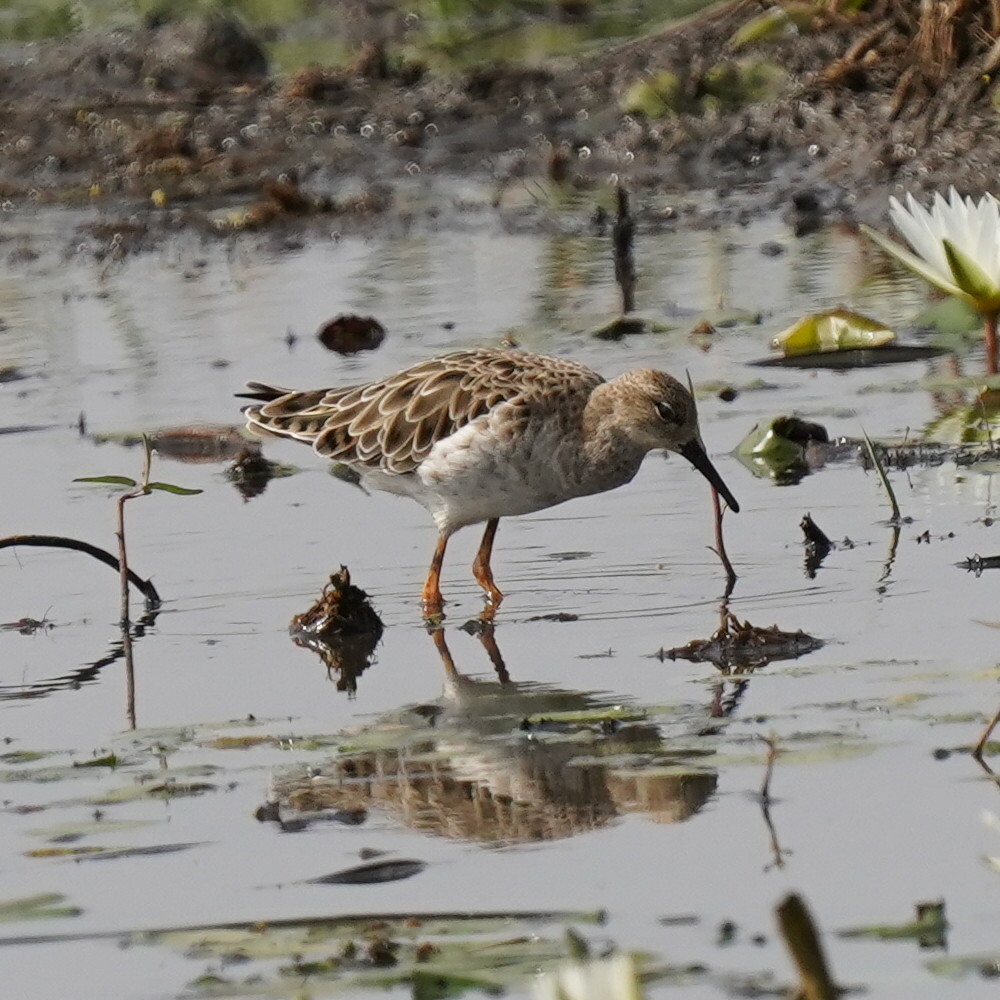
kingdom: Animalia
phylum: Chordata
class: Aves
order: Charadriiformes
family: Scolopacidae
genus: Calidris
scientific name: Calidris pugnax
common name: Ruff
